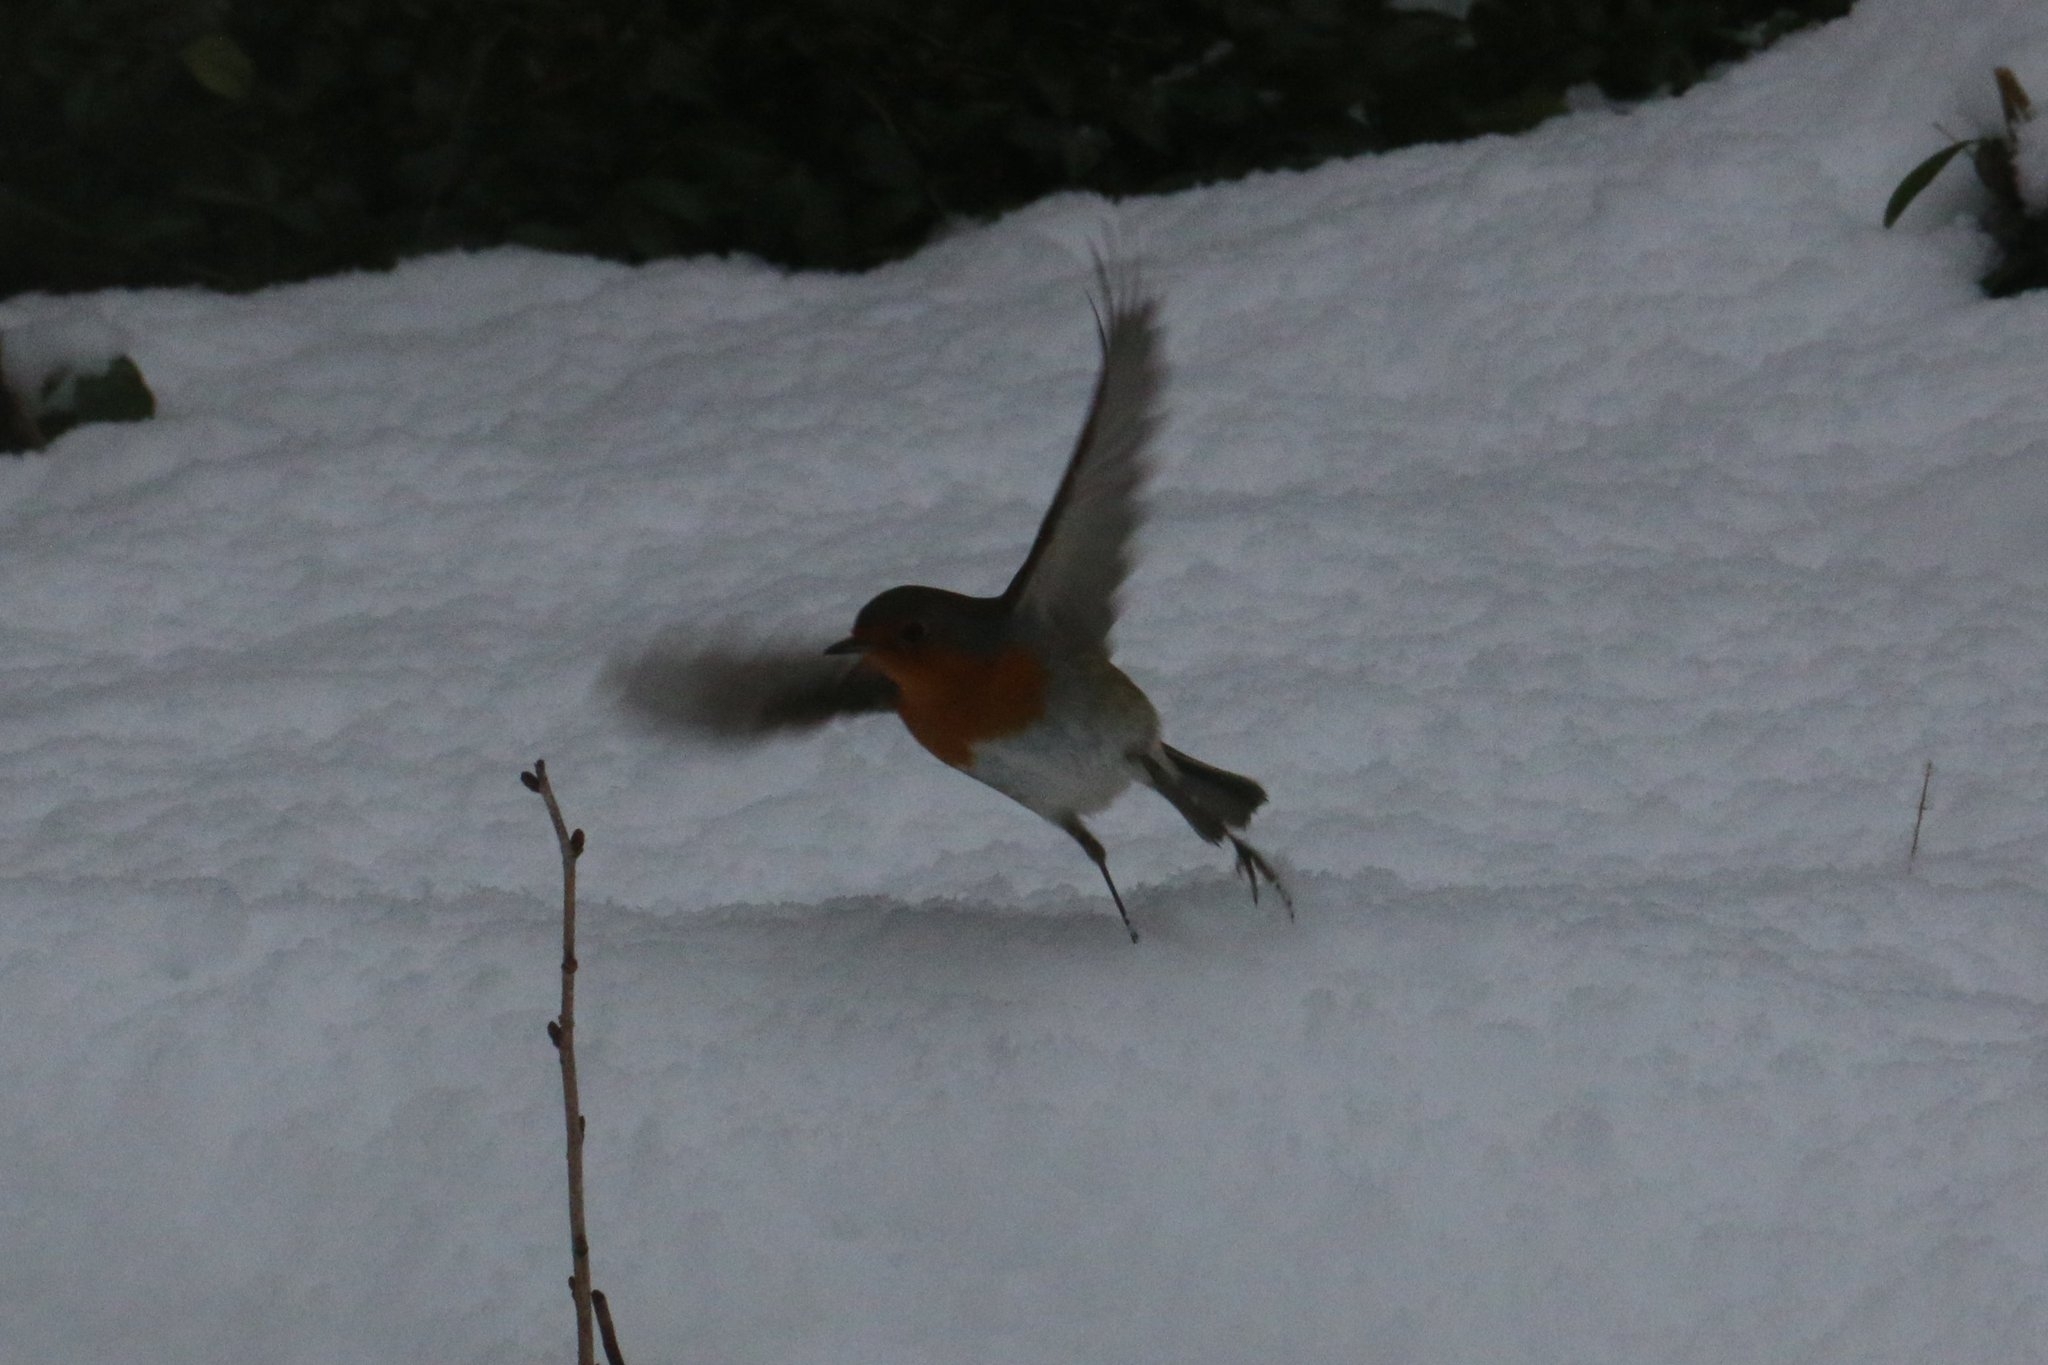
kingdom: Animalia
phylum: Chordata
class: Aves
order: Passeriformes
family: Muscicapidae
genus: Erithacus
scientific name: Erithacus rubecula
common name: European robin
